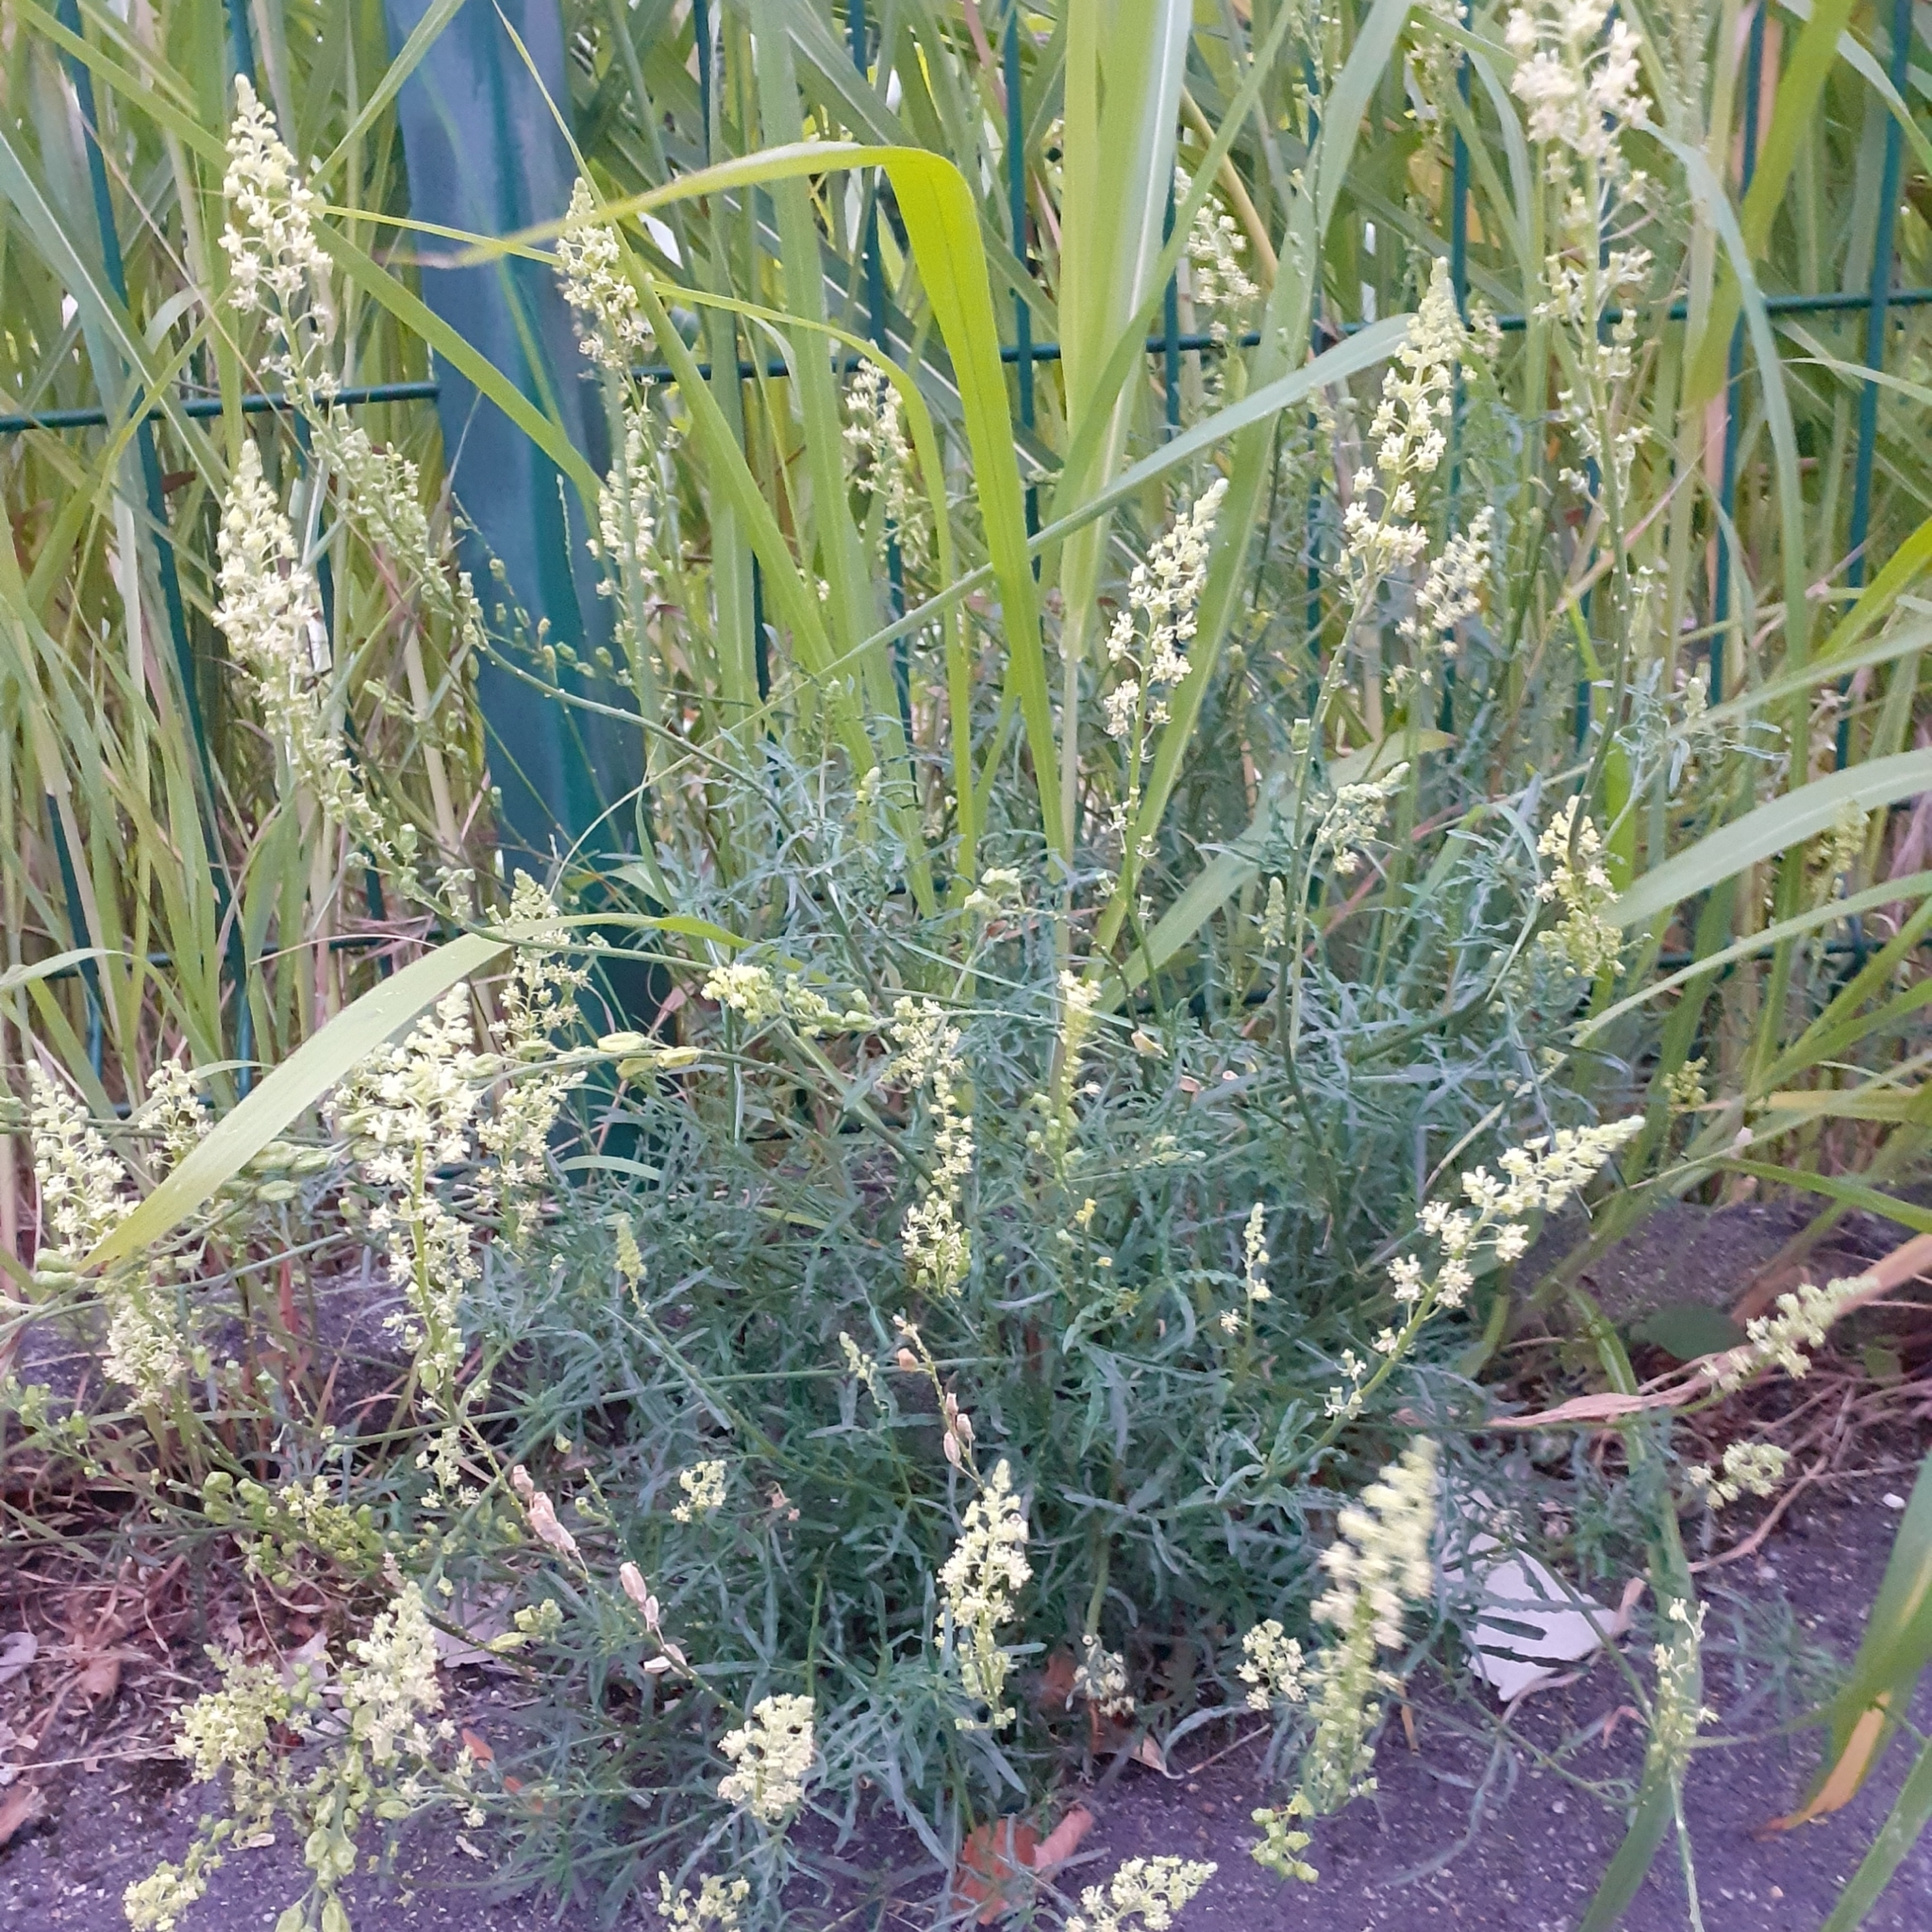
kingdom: Plantae
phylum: Tracheophyta
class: Magnoliopsida
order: Brassicales
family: Resedaceae
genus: Reseda
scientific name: Reseda lutea
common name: Wild mignonette
